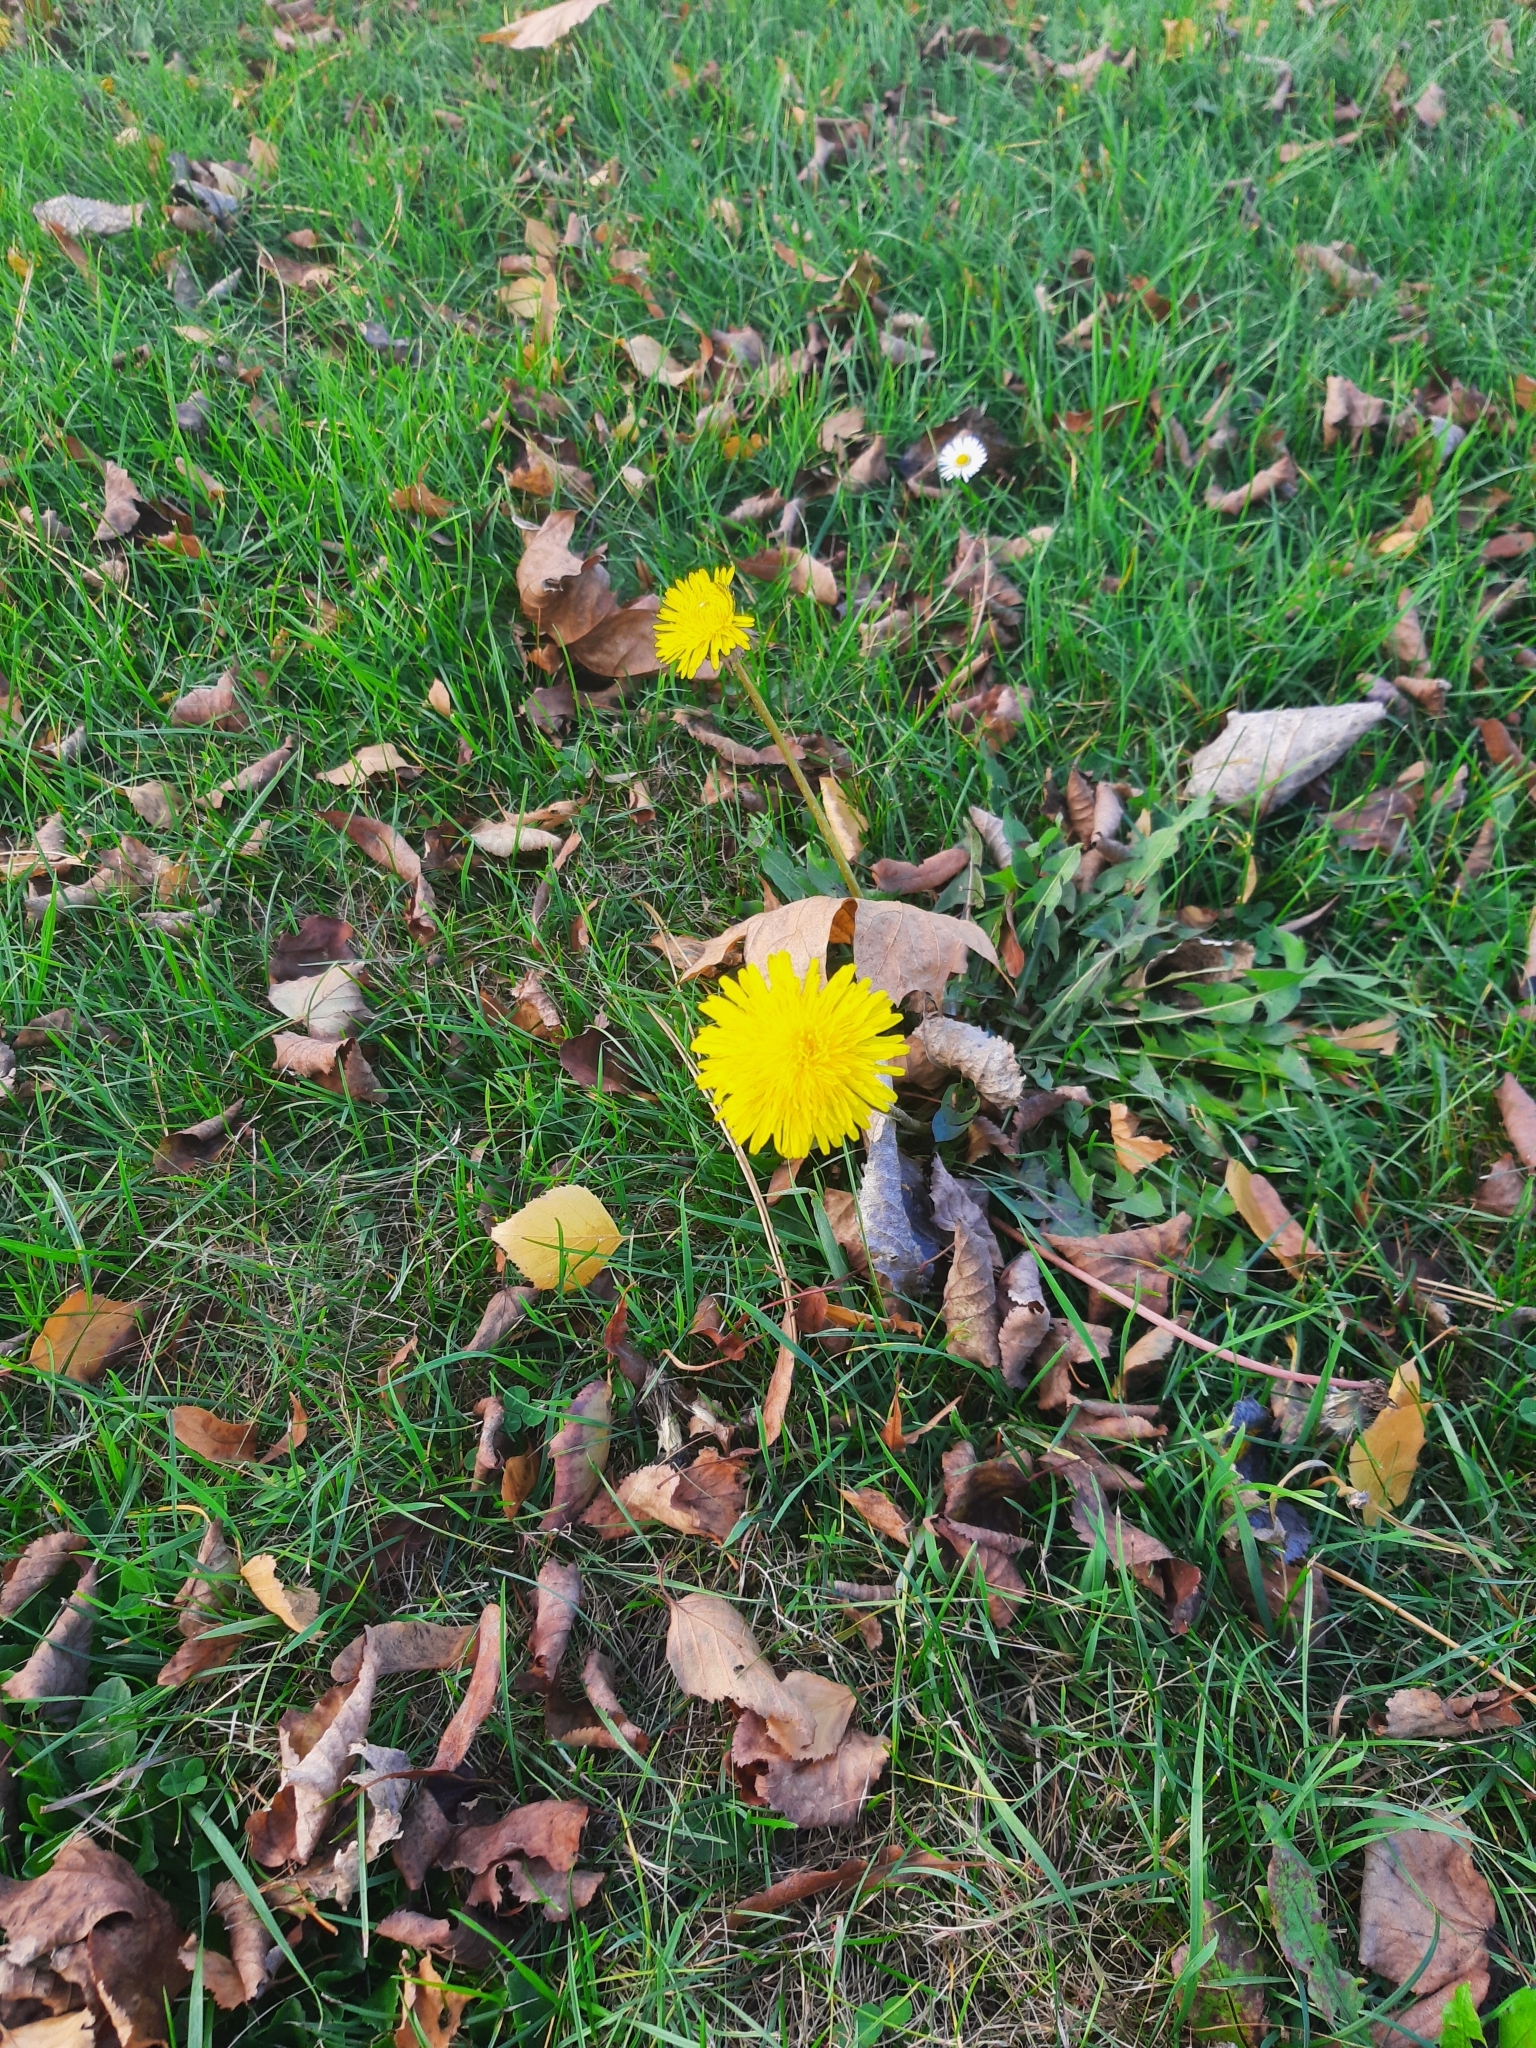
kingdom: Plantae
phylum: Tracheophyta
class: Magnoliopsida
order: Asterales
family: Asteraceae
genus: Taraxacum
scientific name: Taraxacum officinale
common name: Common dandelion
